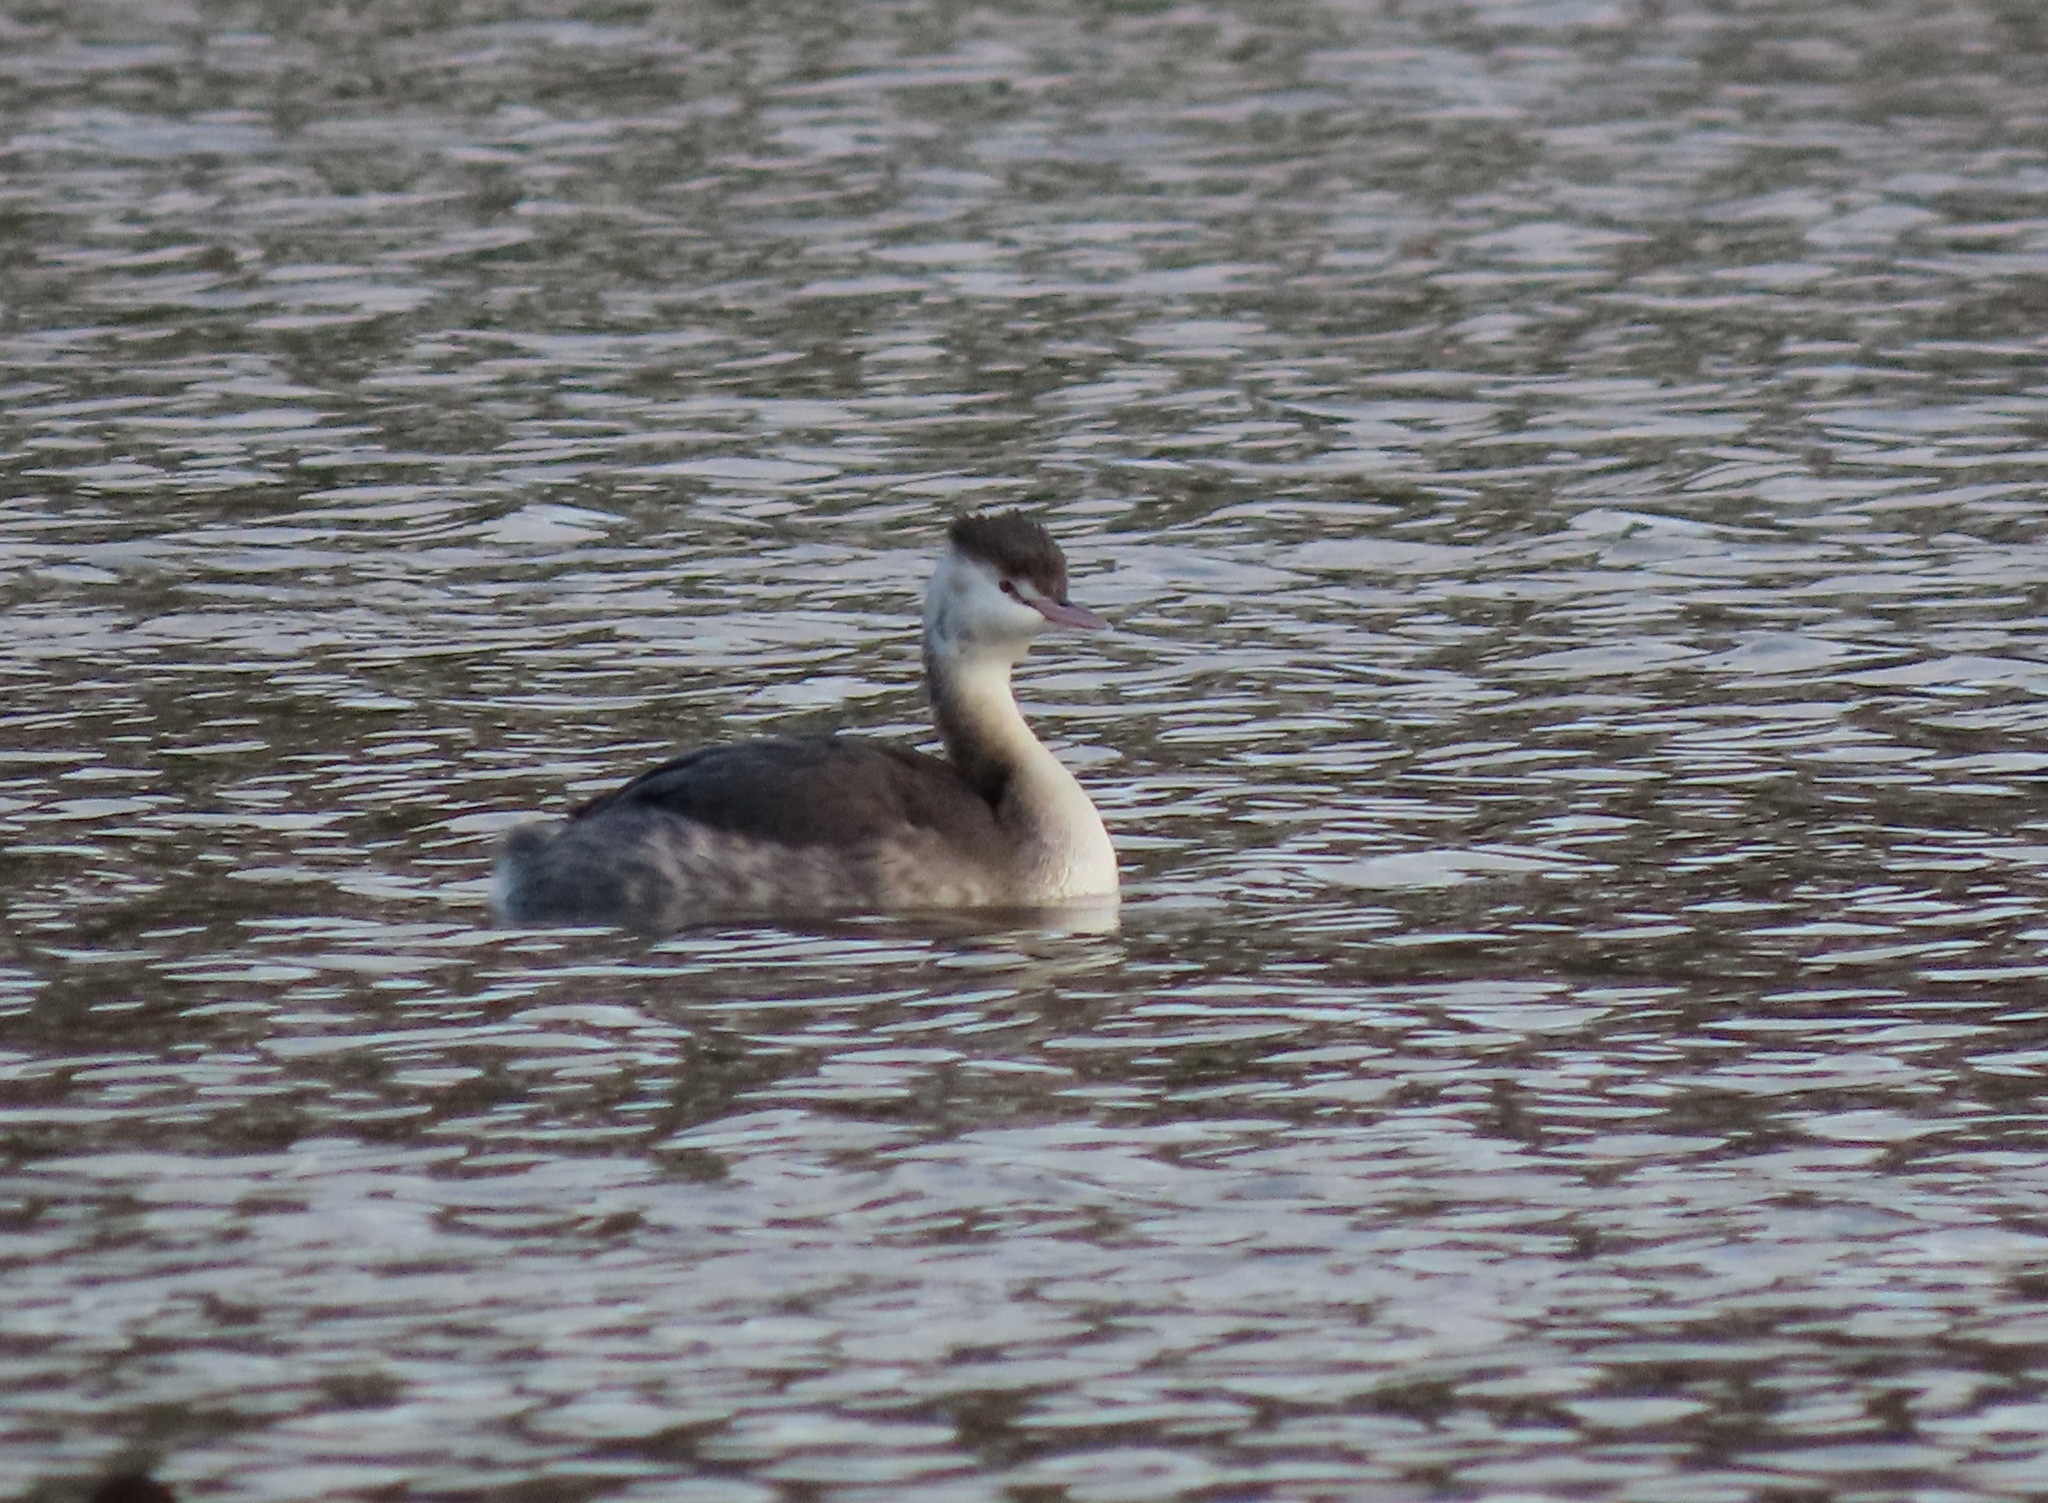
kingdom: Animalia
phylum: Chordata
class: Aves
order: Podicipediformes
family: Podicipedidae
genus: Podiceps
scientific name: Podiceps cristatus
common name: Great crested grebe
